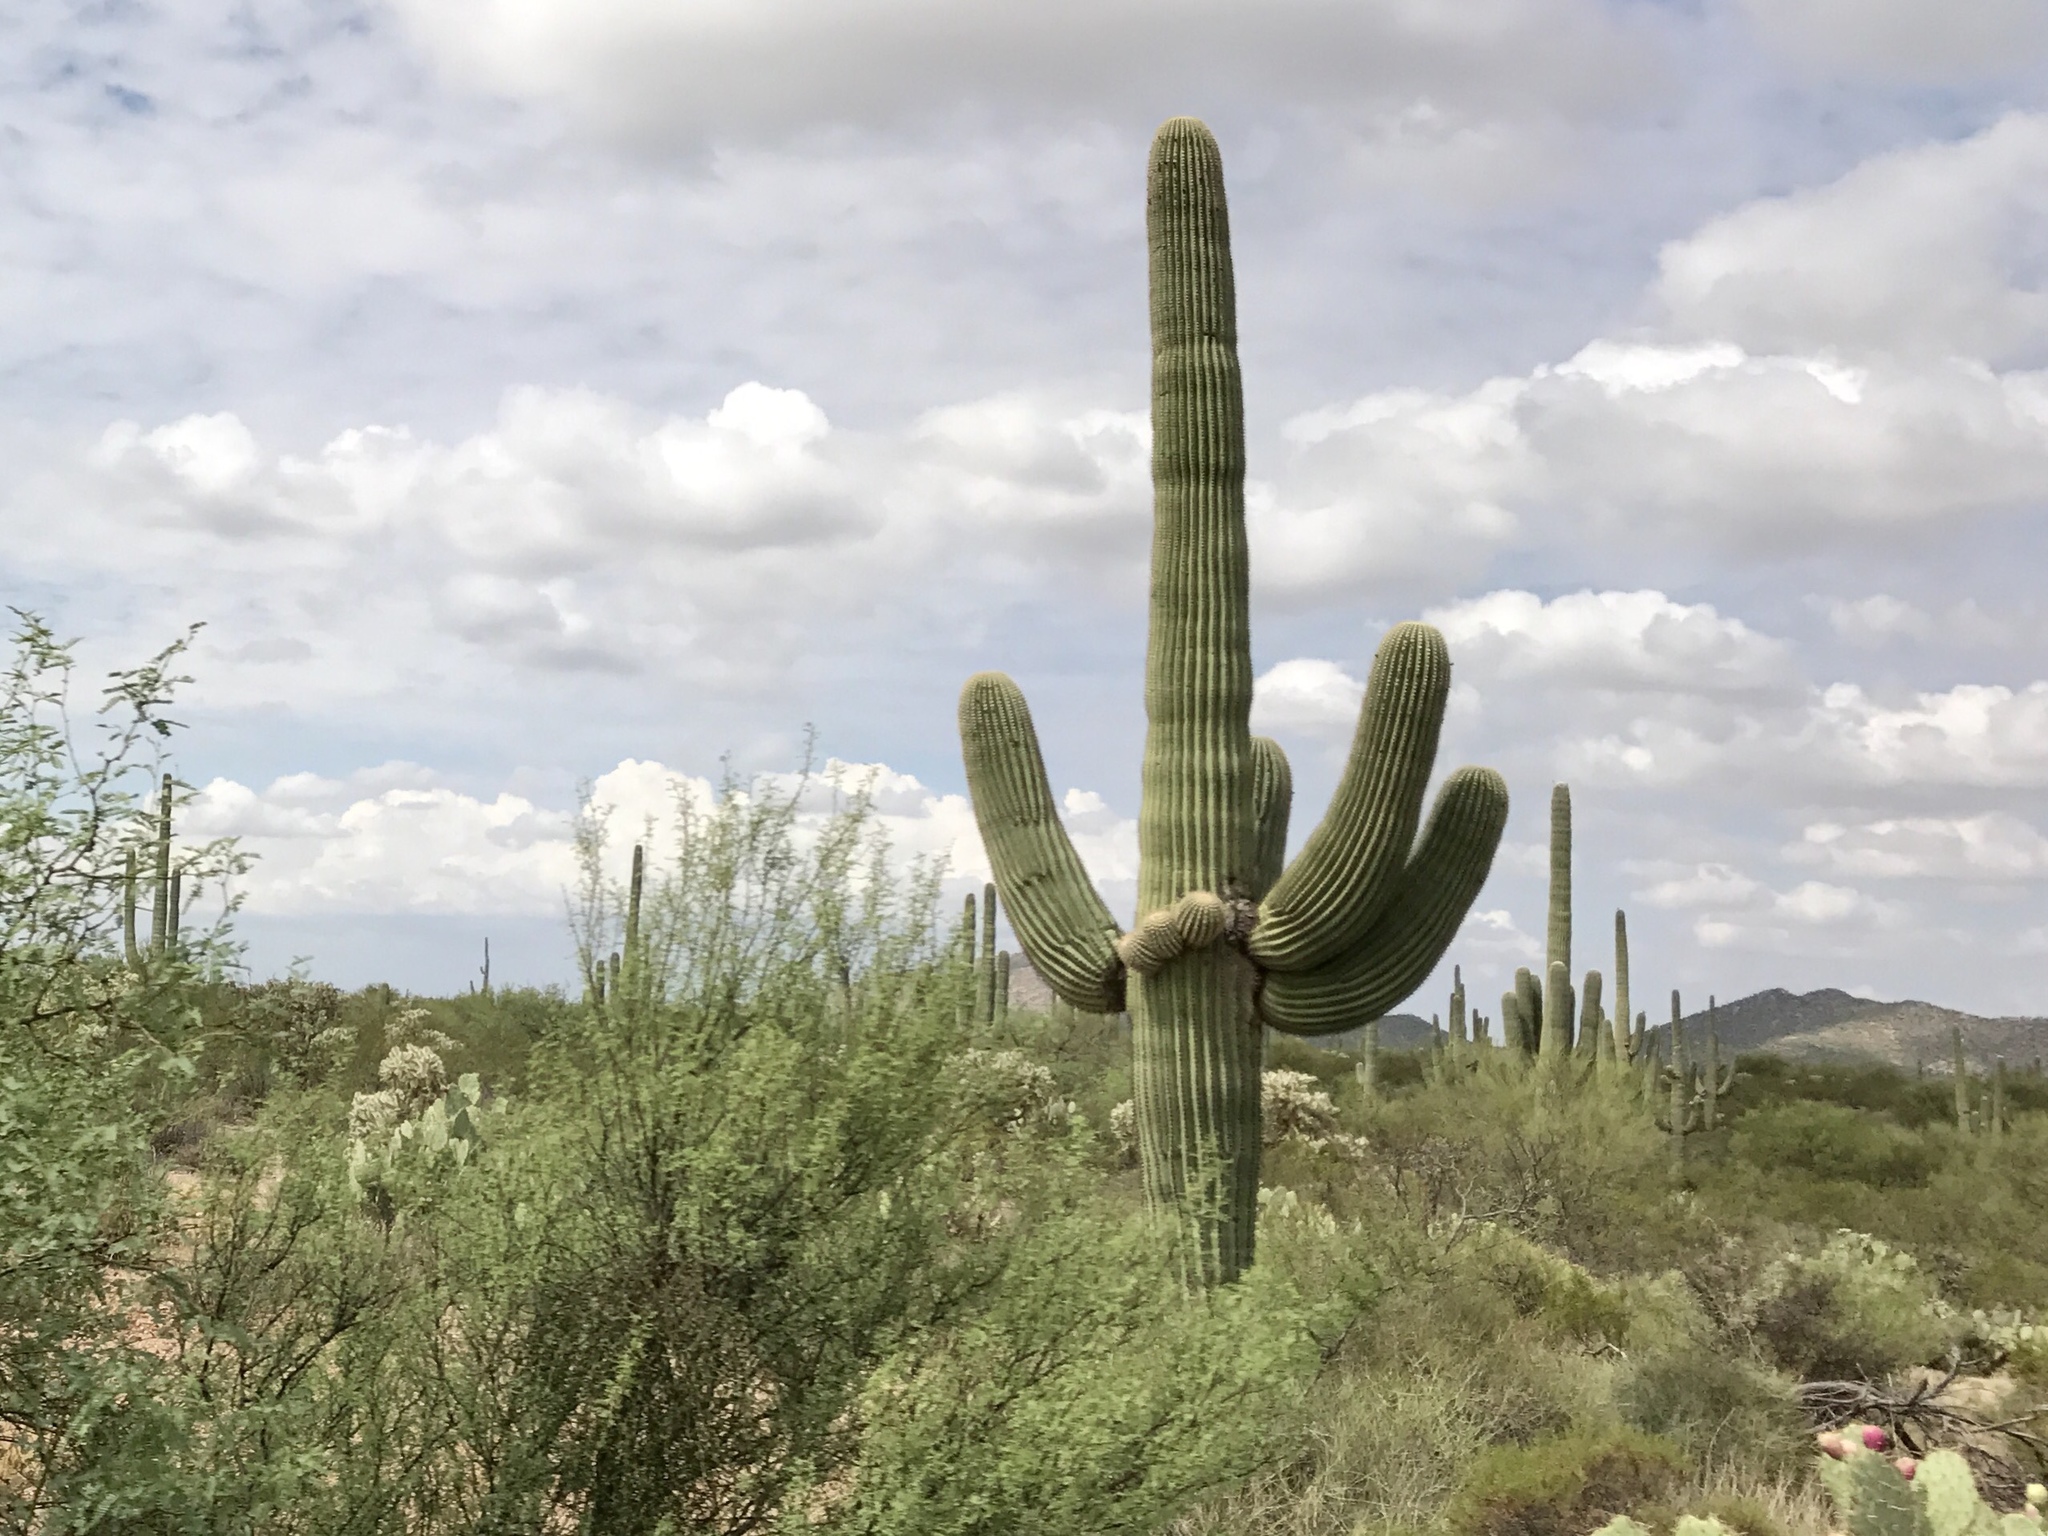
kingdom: Plantae
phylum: Tracheophyta
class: Magnoliopsida
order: Caryophyllales
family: Cactaceae
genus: Carnegiea
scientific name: Carnegiea gigantea
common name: Saguaro
